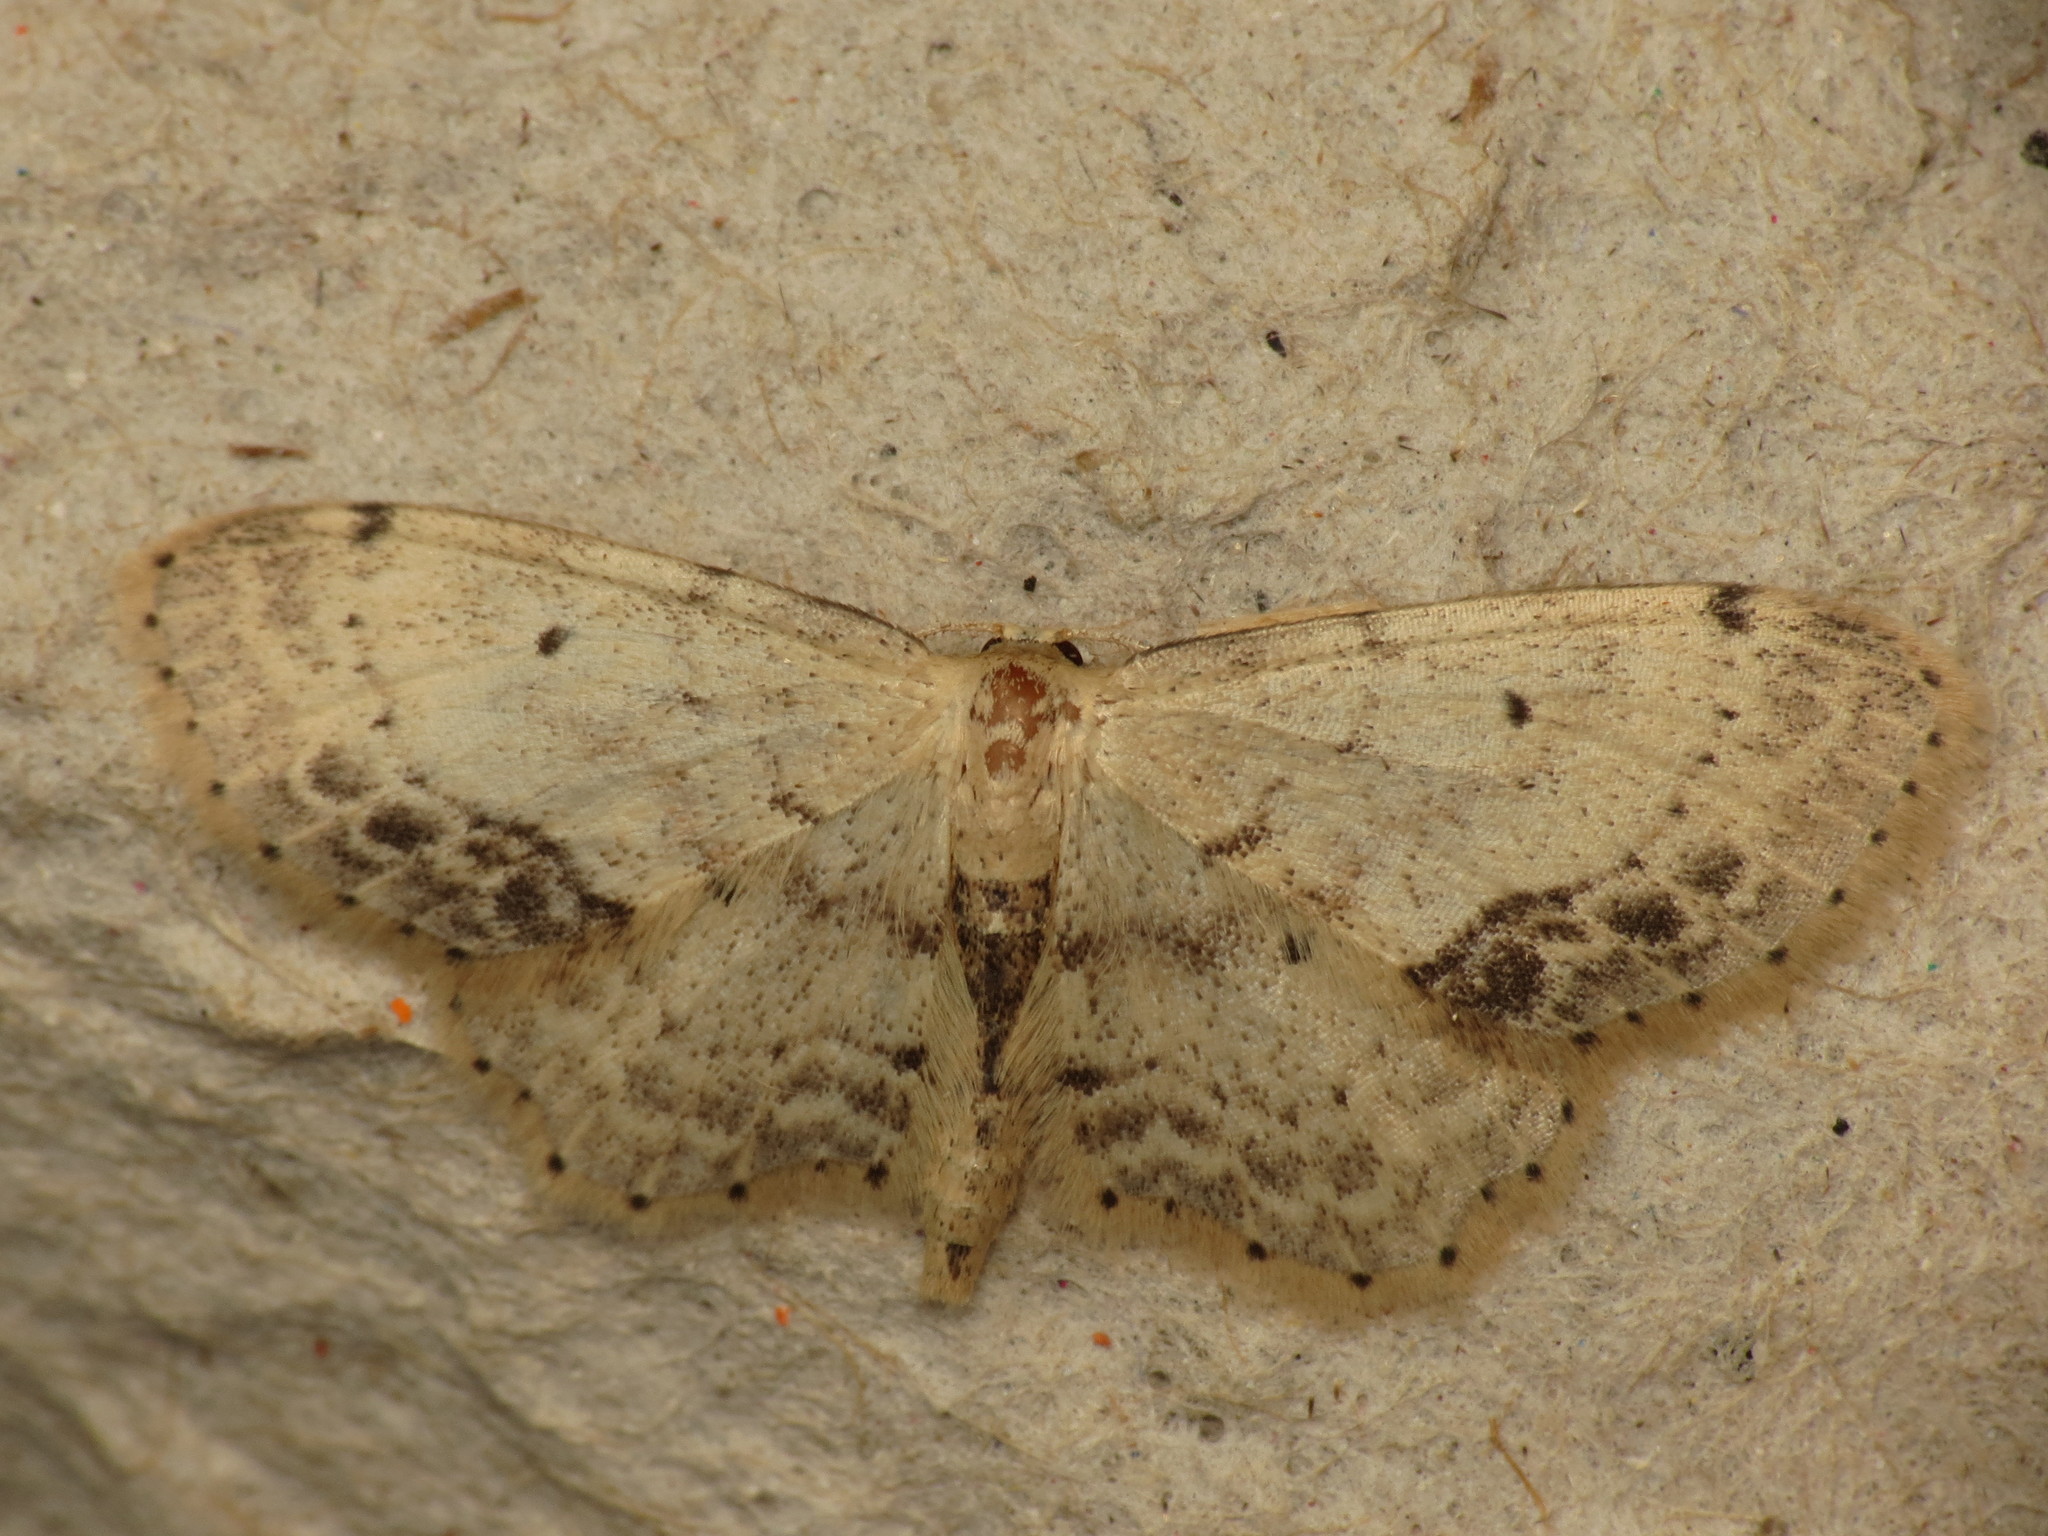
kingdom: Animalia
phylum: Arthropoda
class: Insecta
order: Lepidoptera
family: Geometridae
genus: Idaea
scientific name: Idaea dimidiata
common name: Single-dotted wave
